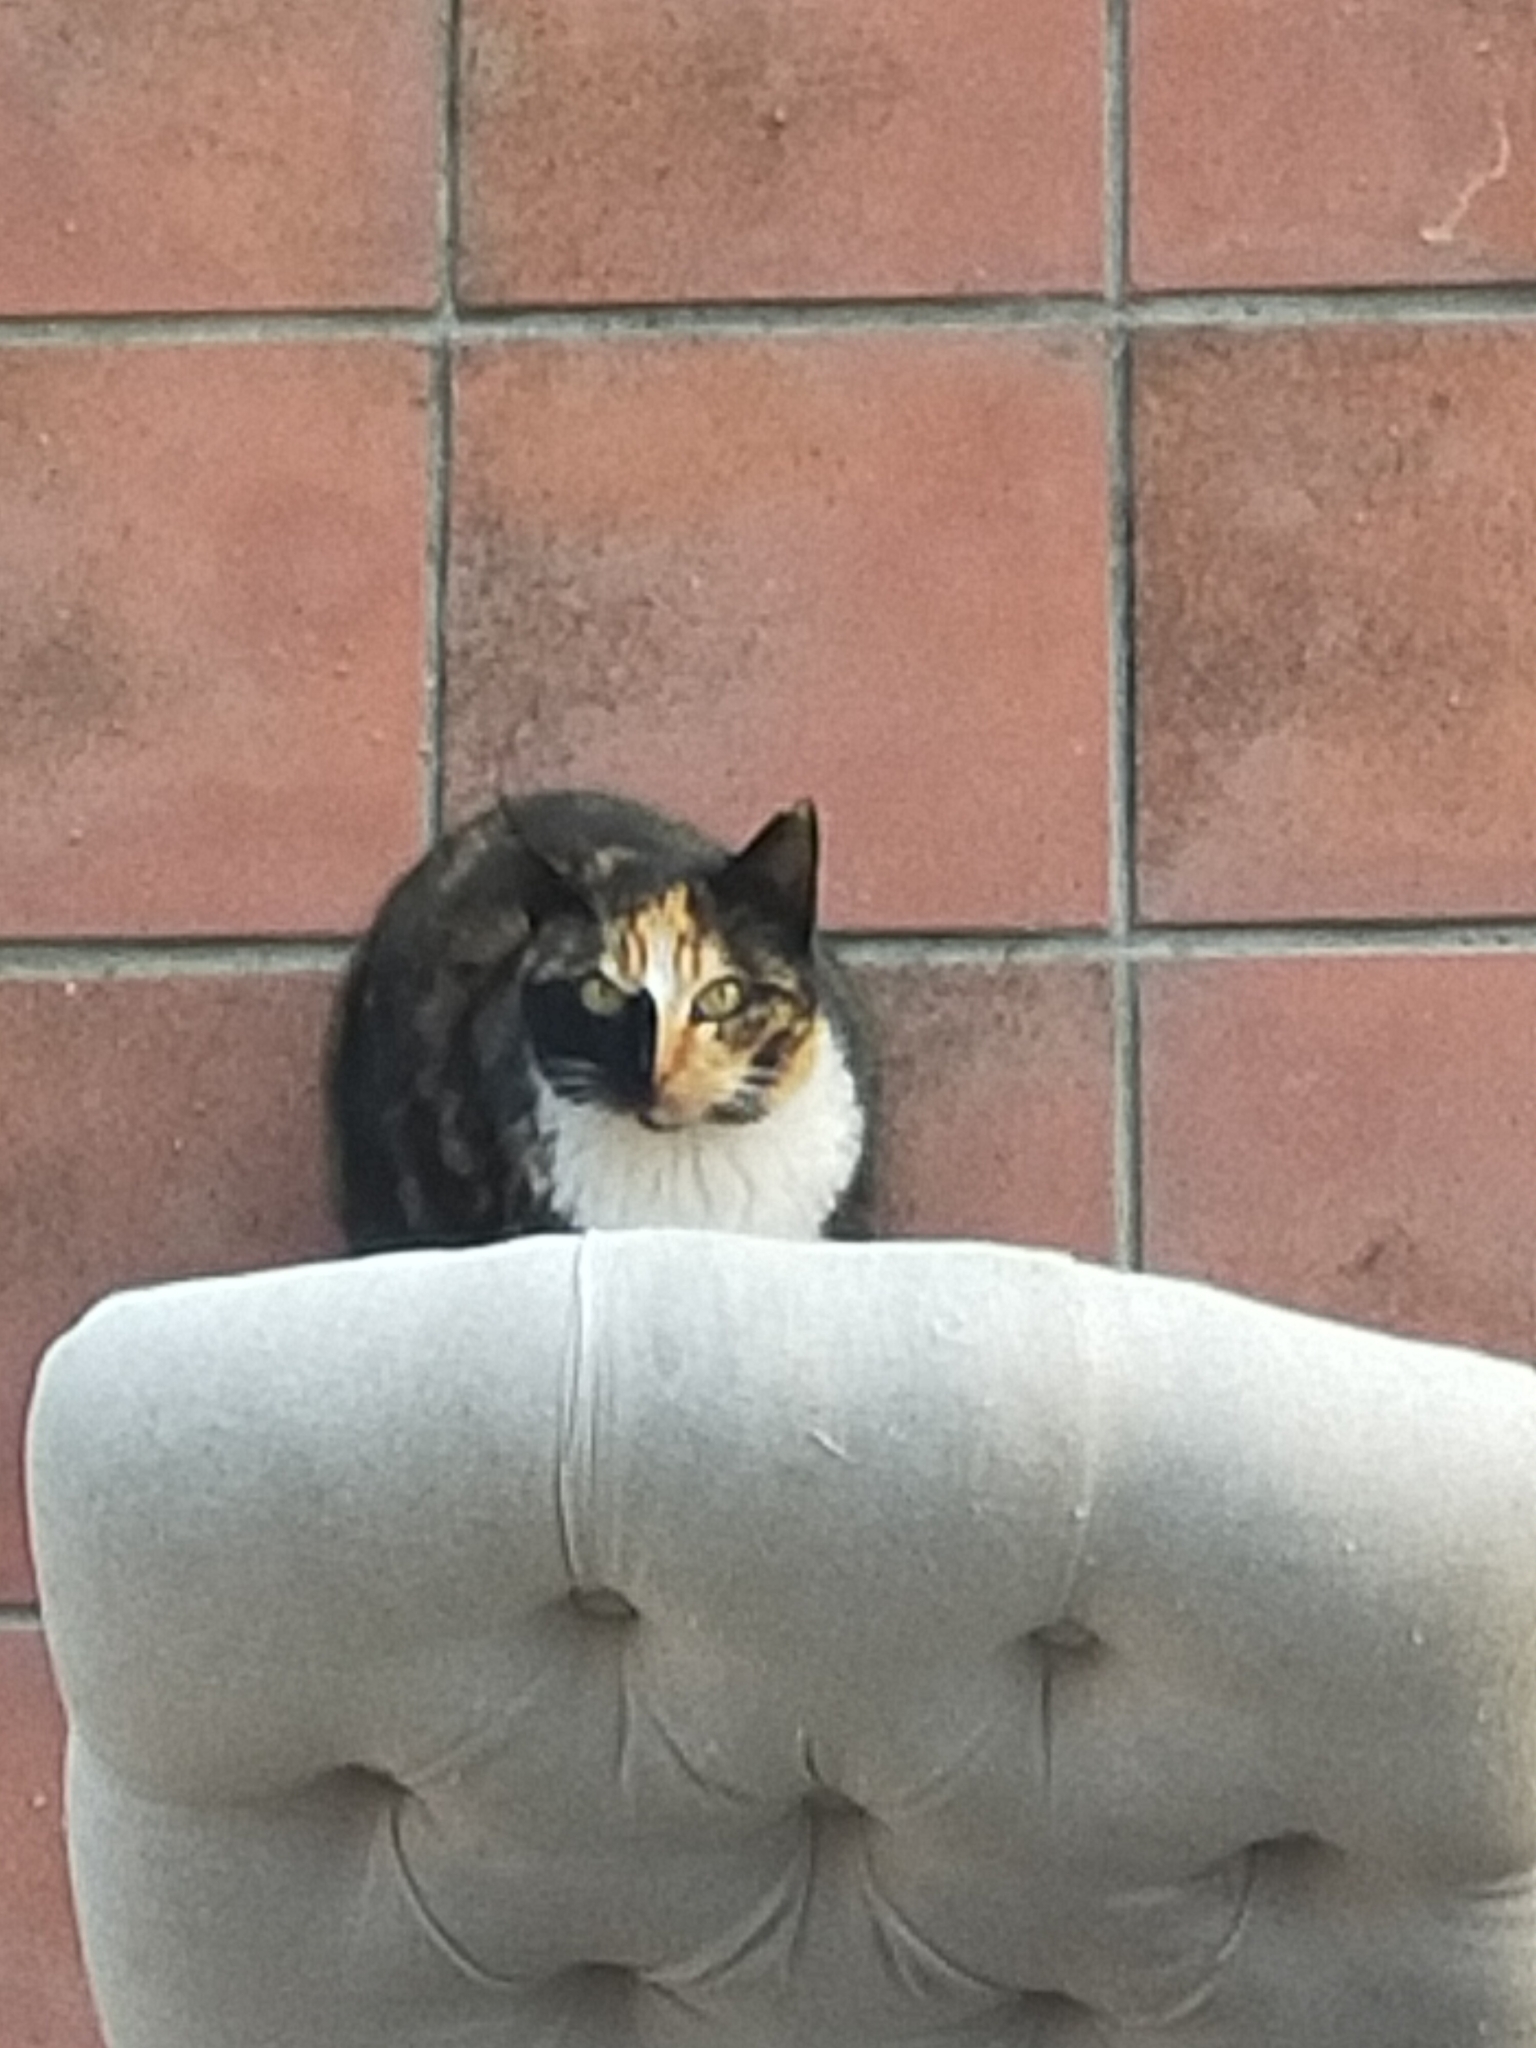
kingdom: Animalia
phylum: Chordata
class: Mammalia
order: Carnivora
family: Felidae
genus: Felis
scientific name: Felis catus
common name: Domestic cat
